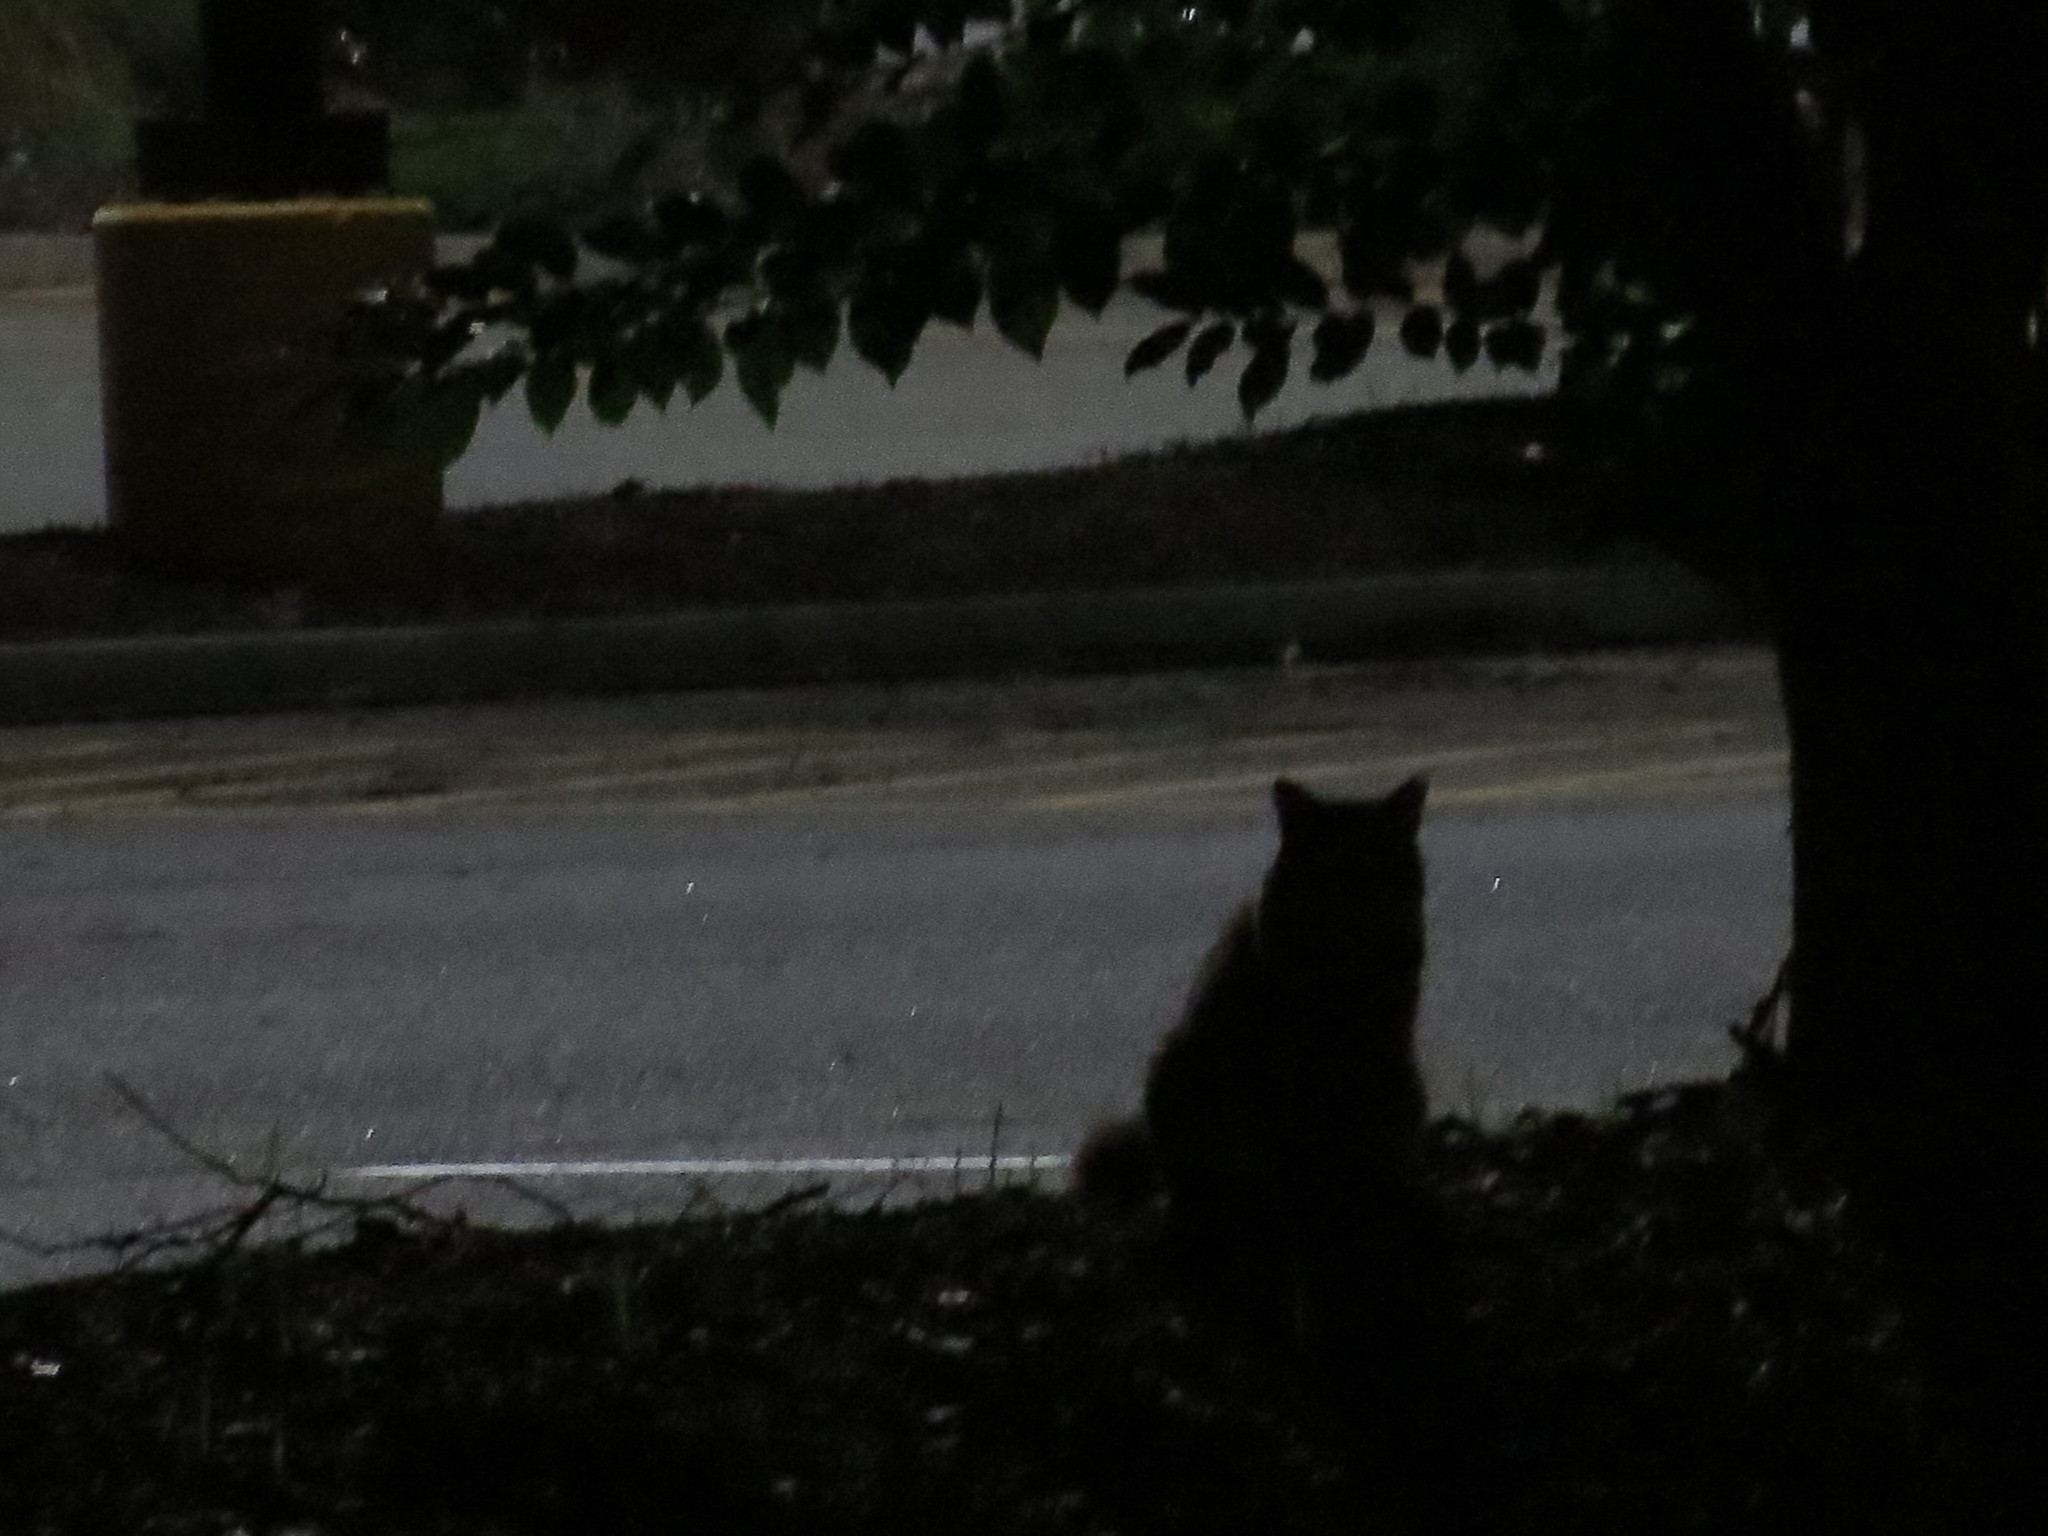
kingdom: Animalia
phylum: Chordata
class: Mammalia
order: Carnivora
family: Felidae
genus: Felis
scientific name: Felis catus
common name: Domestic cat
